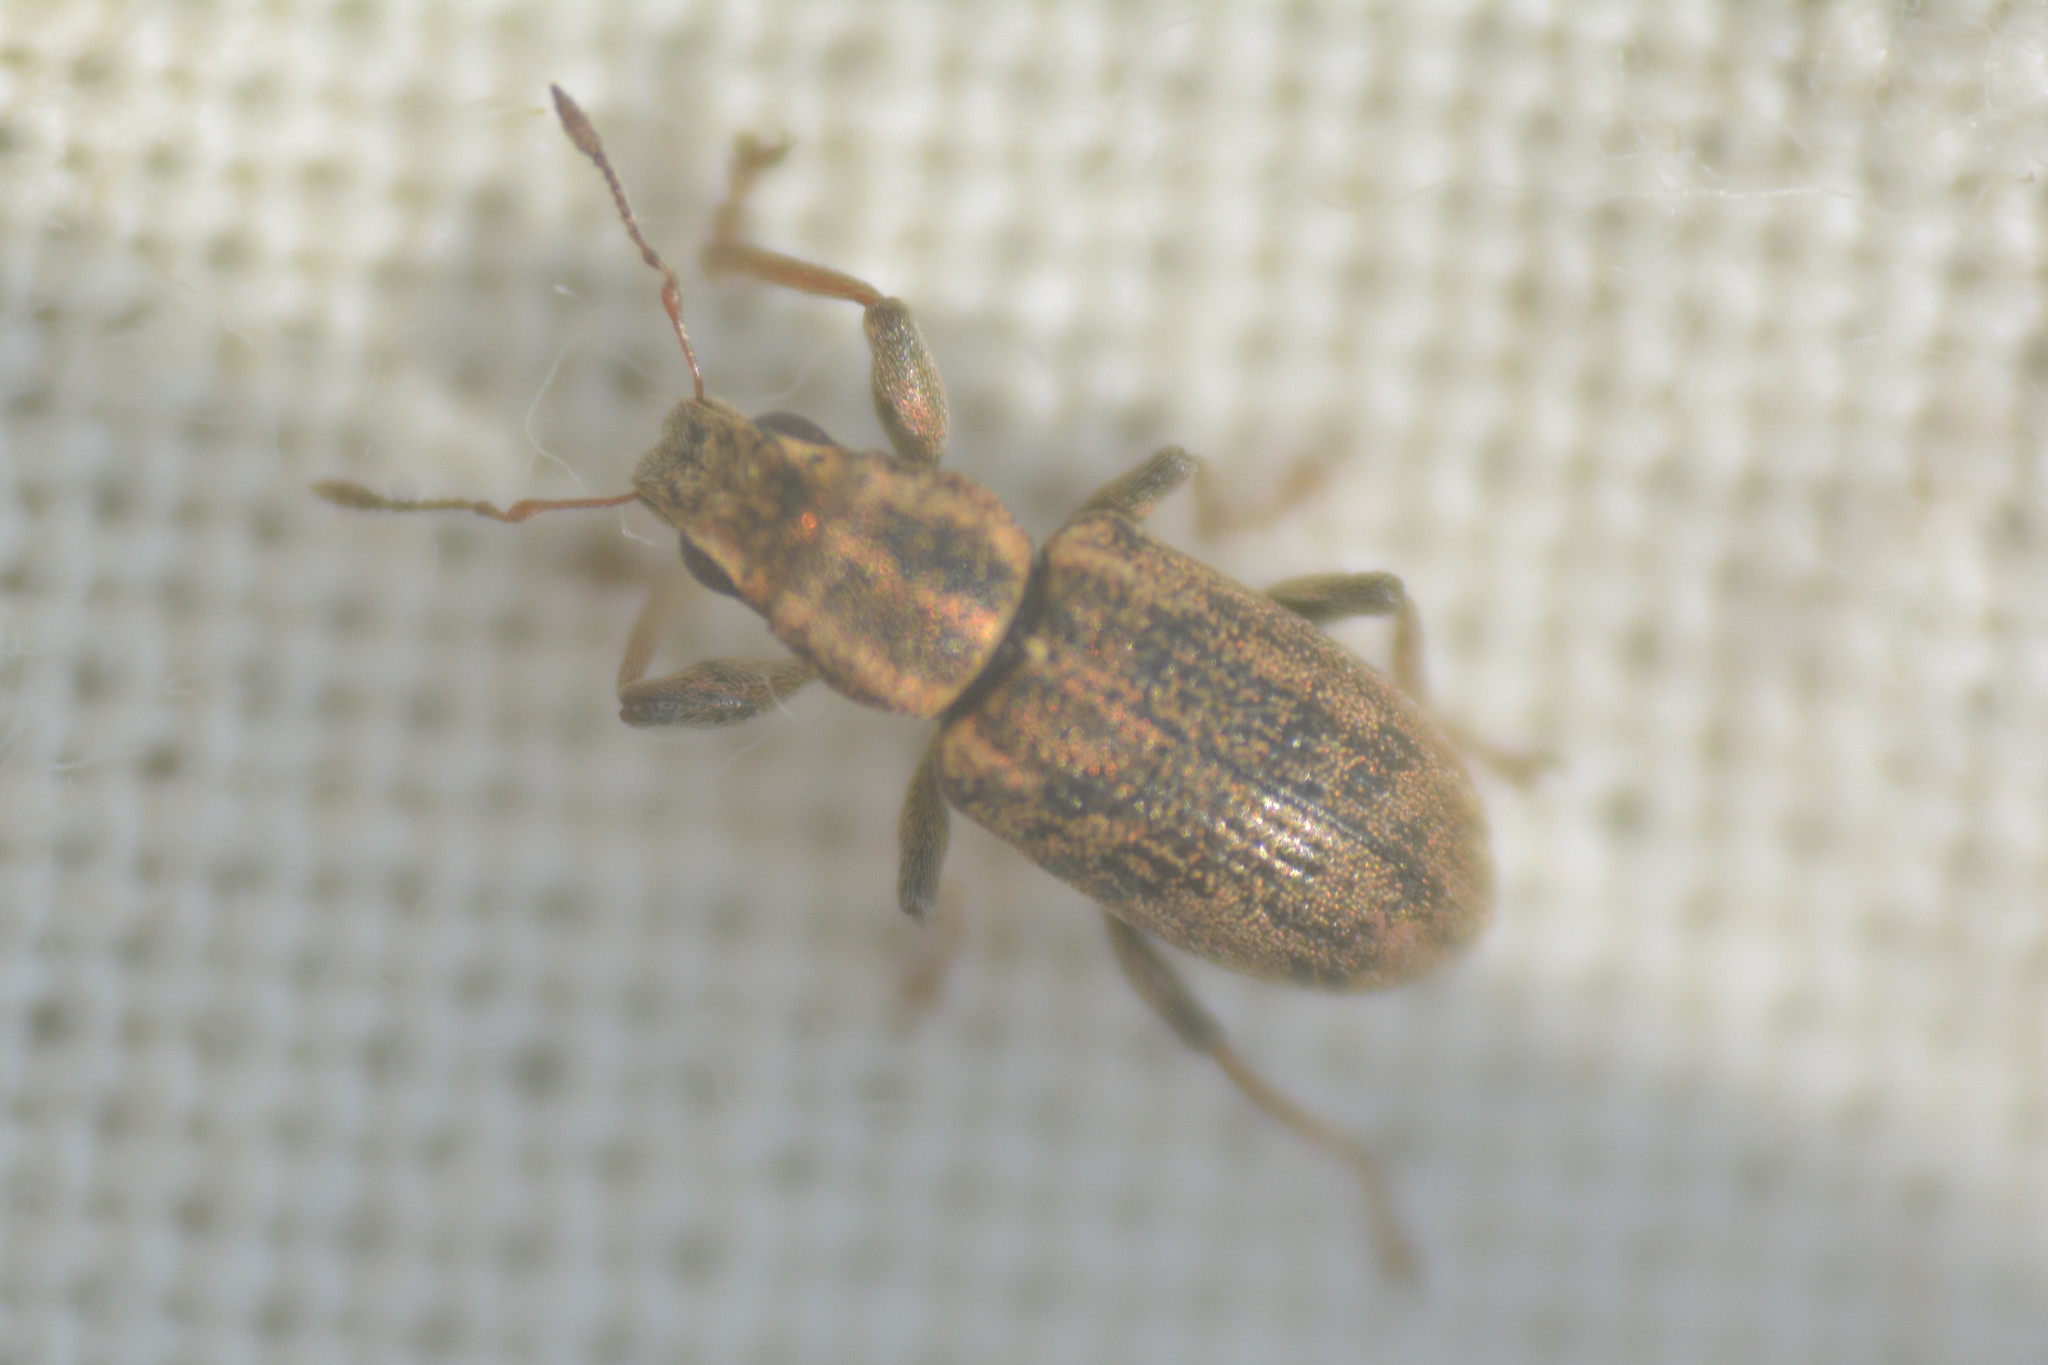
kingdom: Animalia
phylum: Arthropoda
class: Insecta
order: Coleoptera
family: Curculionidae
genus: Sitona
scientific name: Sitona lineatus
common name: Weevil
